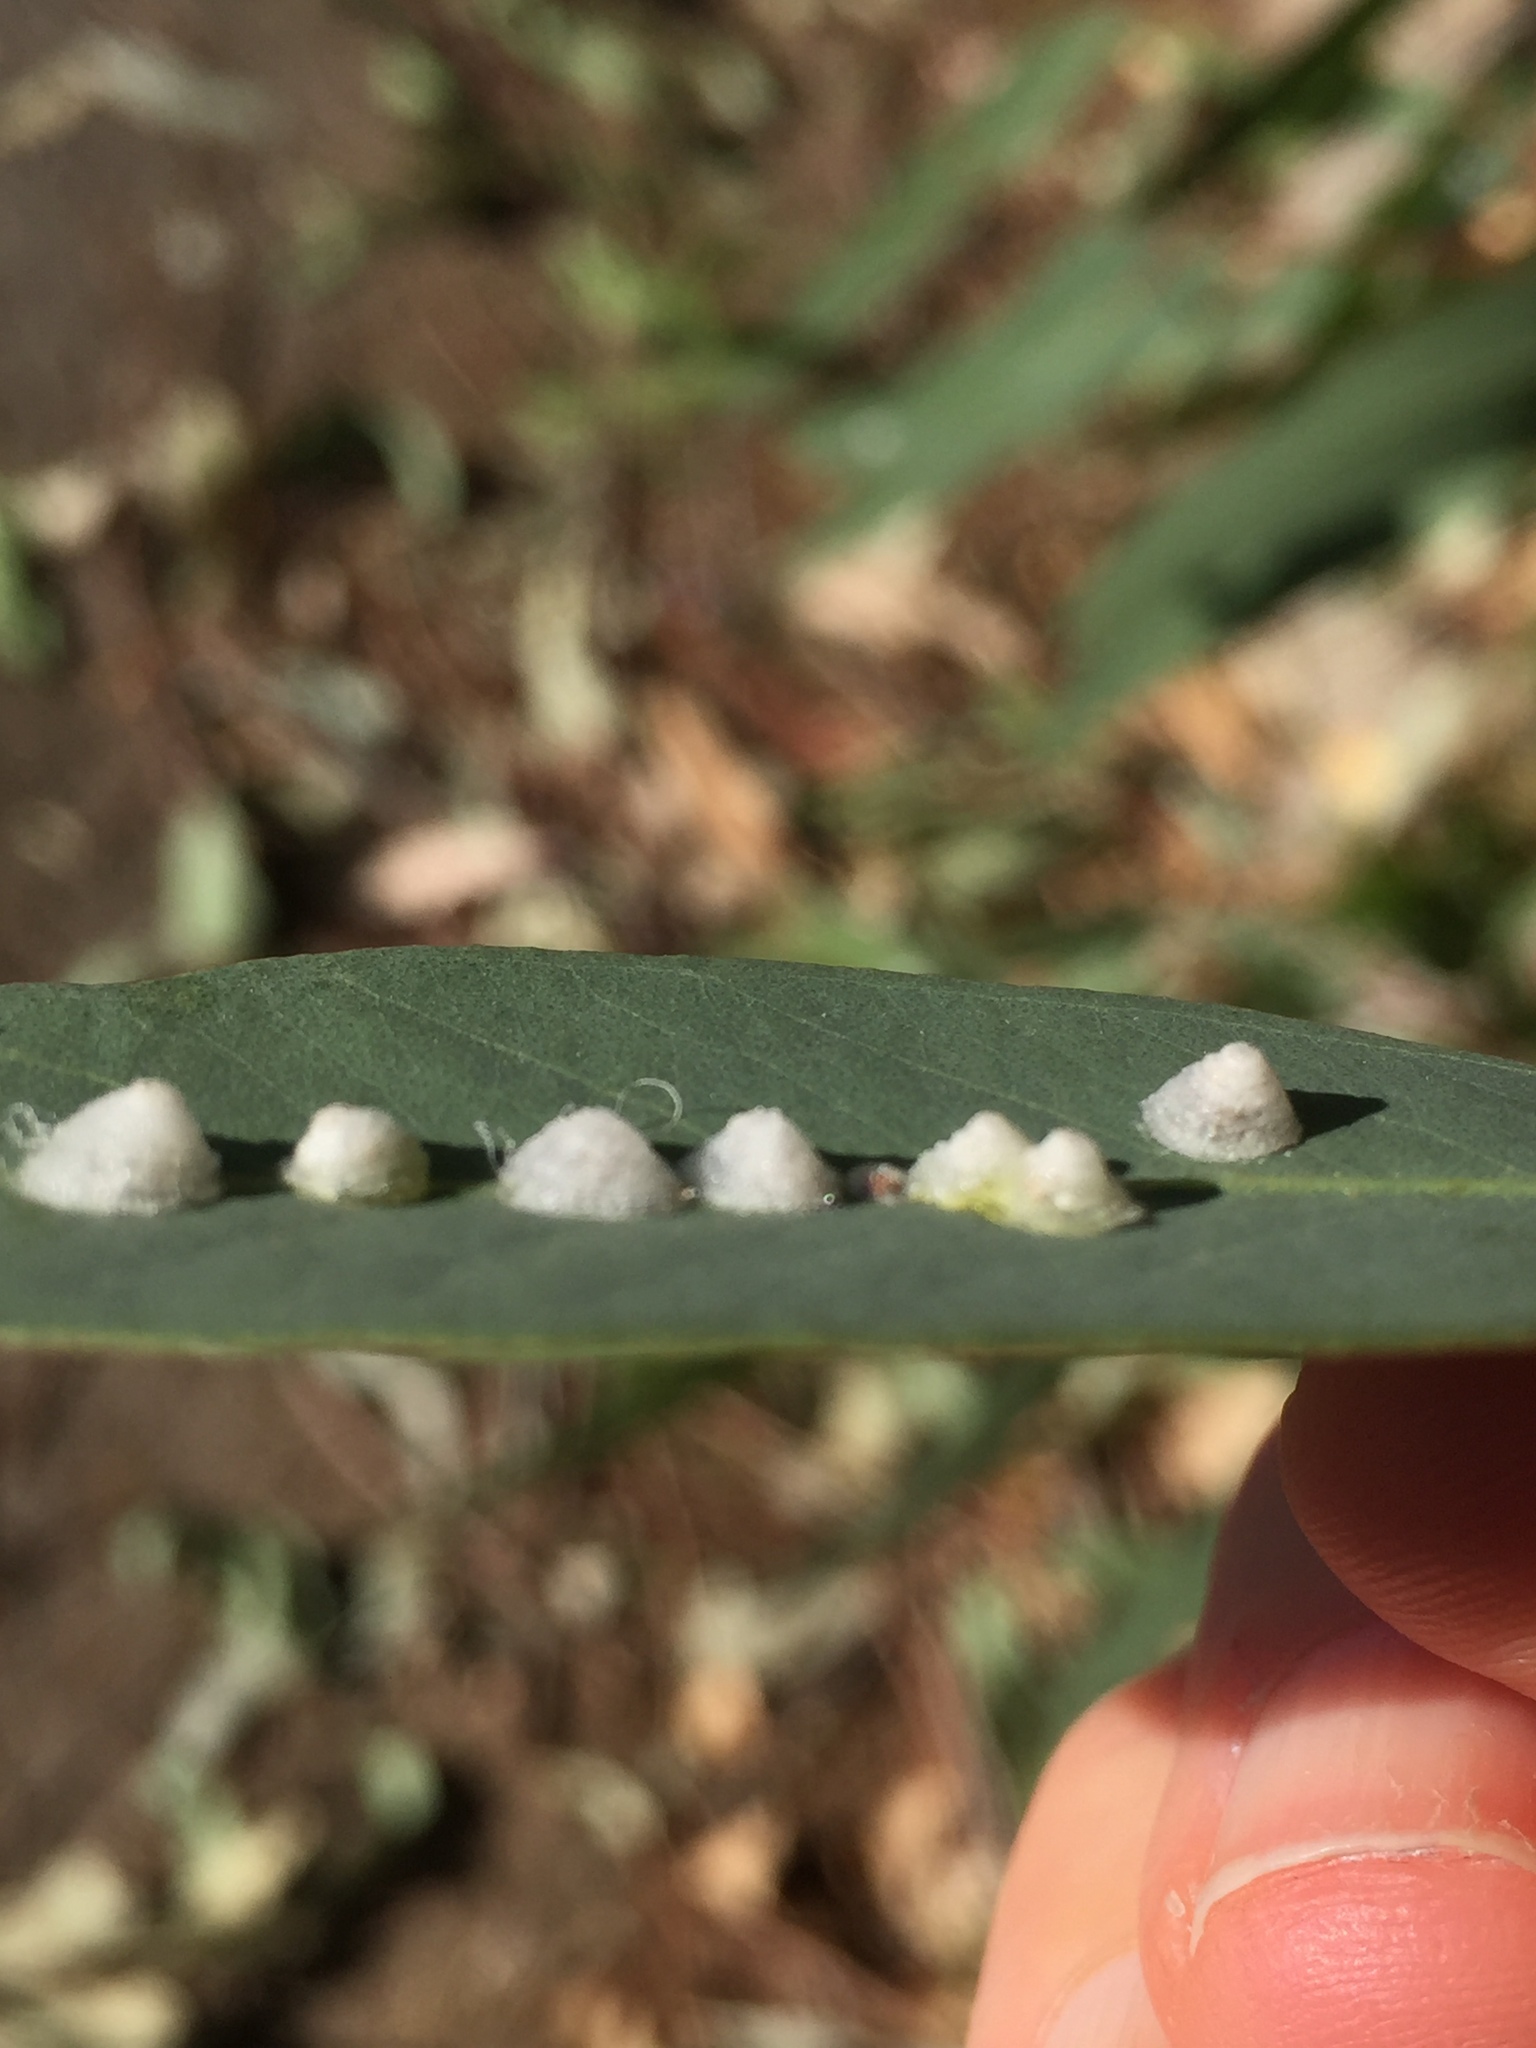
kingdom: Animalia
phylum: Arthropoda
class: Insecta
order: Hemiptera
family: Aphalaridae
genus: Glycaspis
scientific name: Glycaspis brimblecombei
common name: Red gum lerp psyllid
